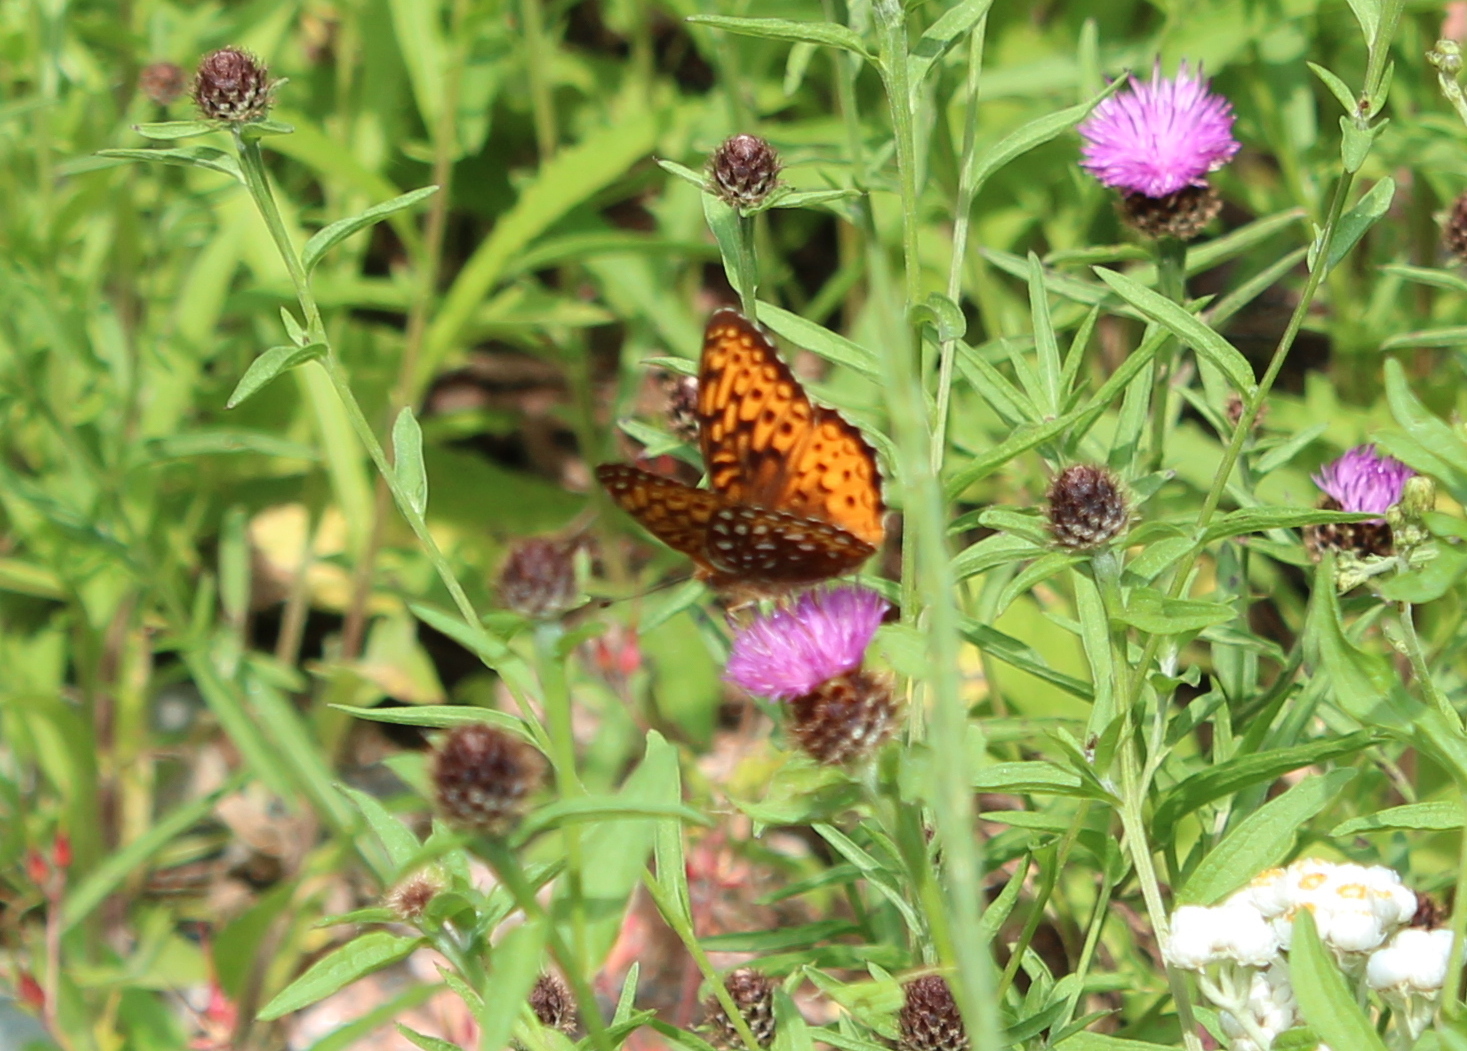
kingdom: Animalia
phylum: Arthropoda
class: Insecta
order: Lepidoptera
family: Nymphalidae
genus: Speyeria
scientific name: Speyeria atlantis
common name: Atlantis fritillary
